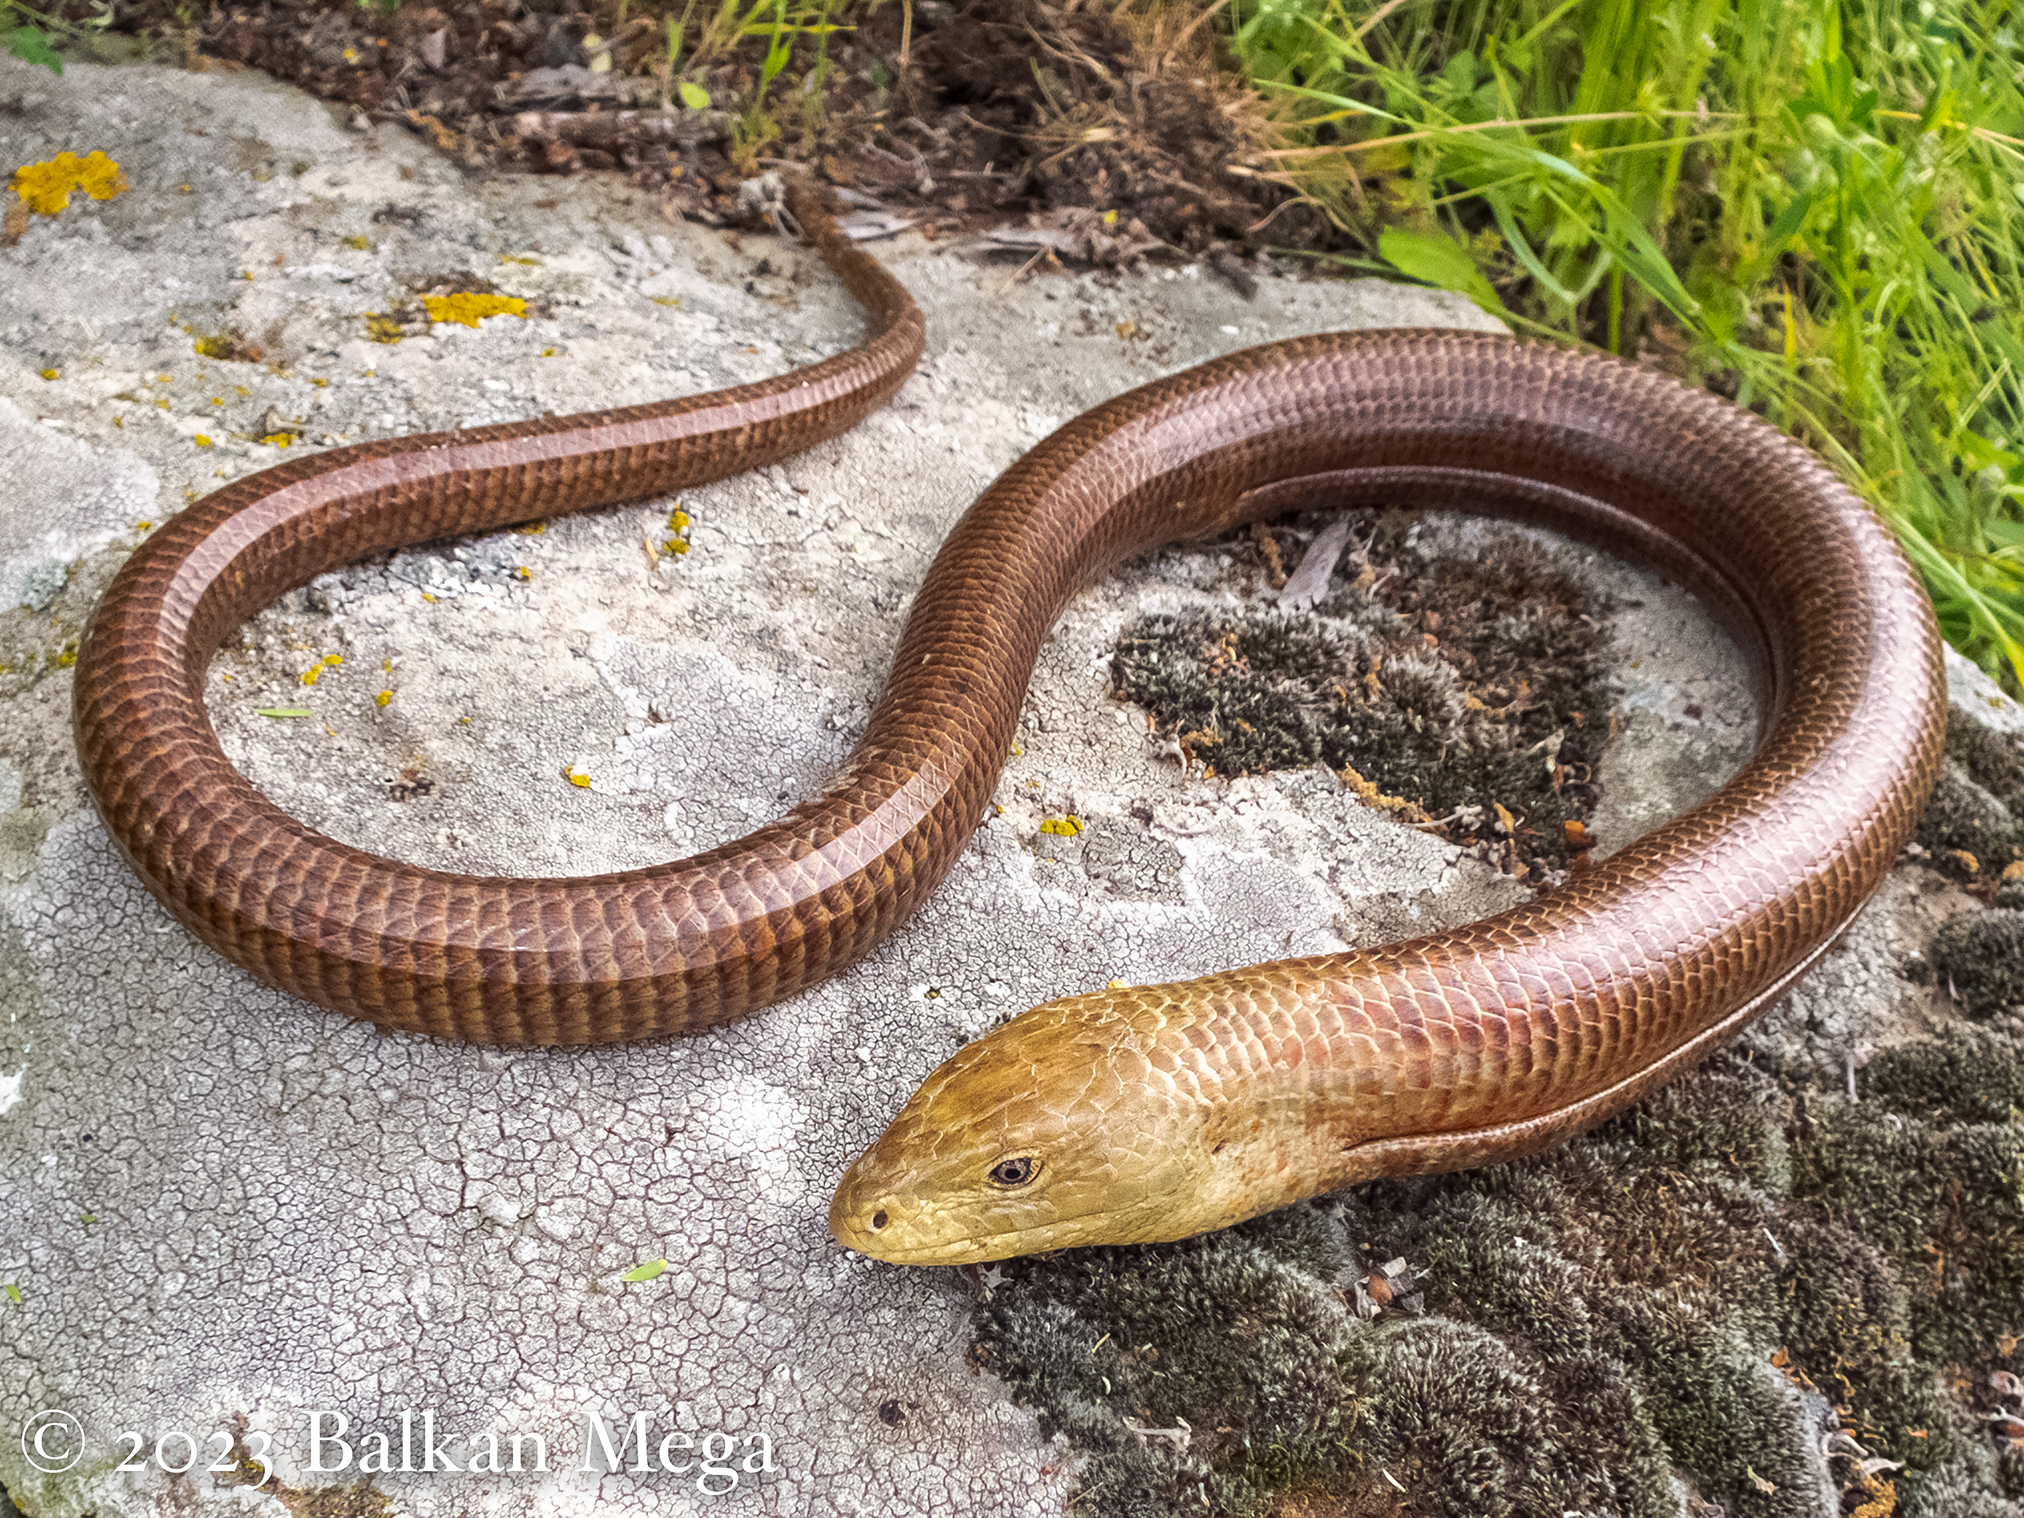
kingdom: Animalia
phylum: Chordata
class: Squamata
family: Anguidae
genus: Pseudopus
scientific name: Pseudopus apodus
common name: European glass lizard
